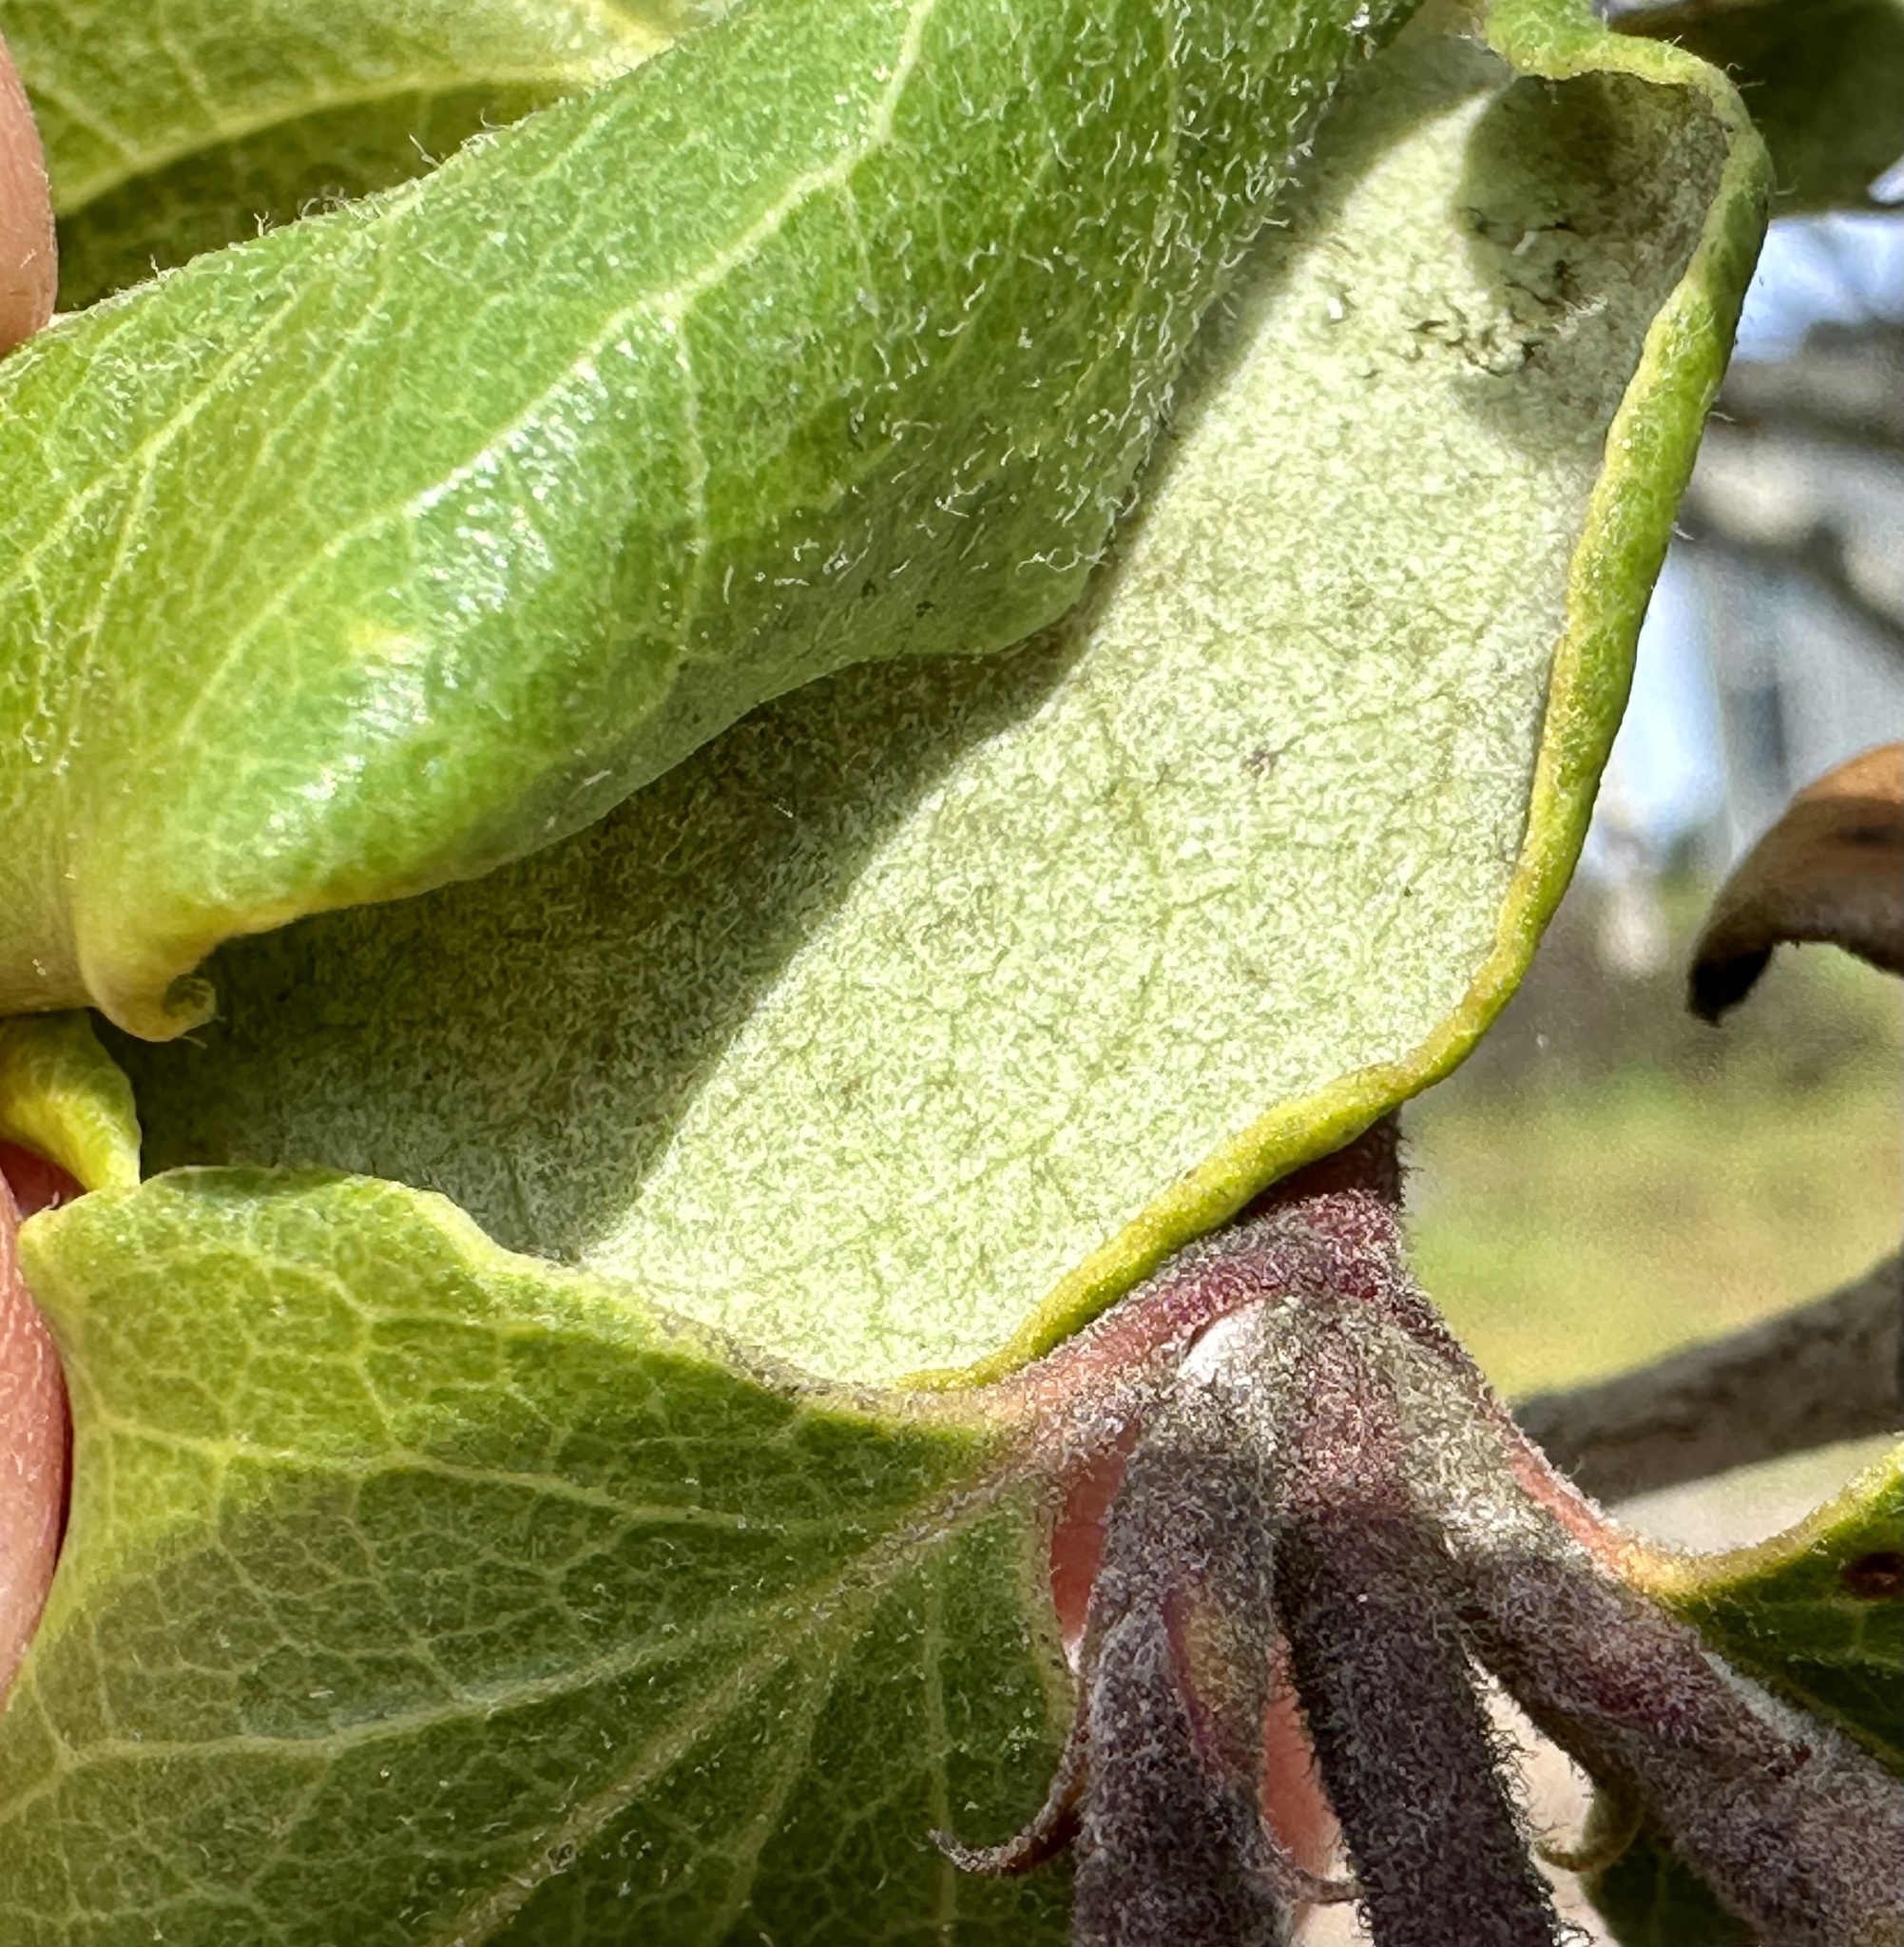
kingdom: Plantae
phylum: Tracheophyta
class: Magnoliopsida
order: Garryales
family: Garryaceae
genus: Garrya
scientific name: Garrya elliptica
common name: Silk-tassel
